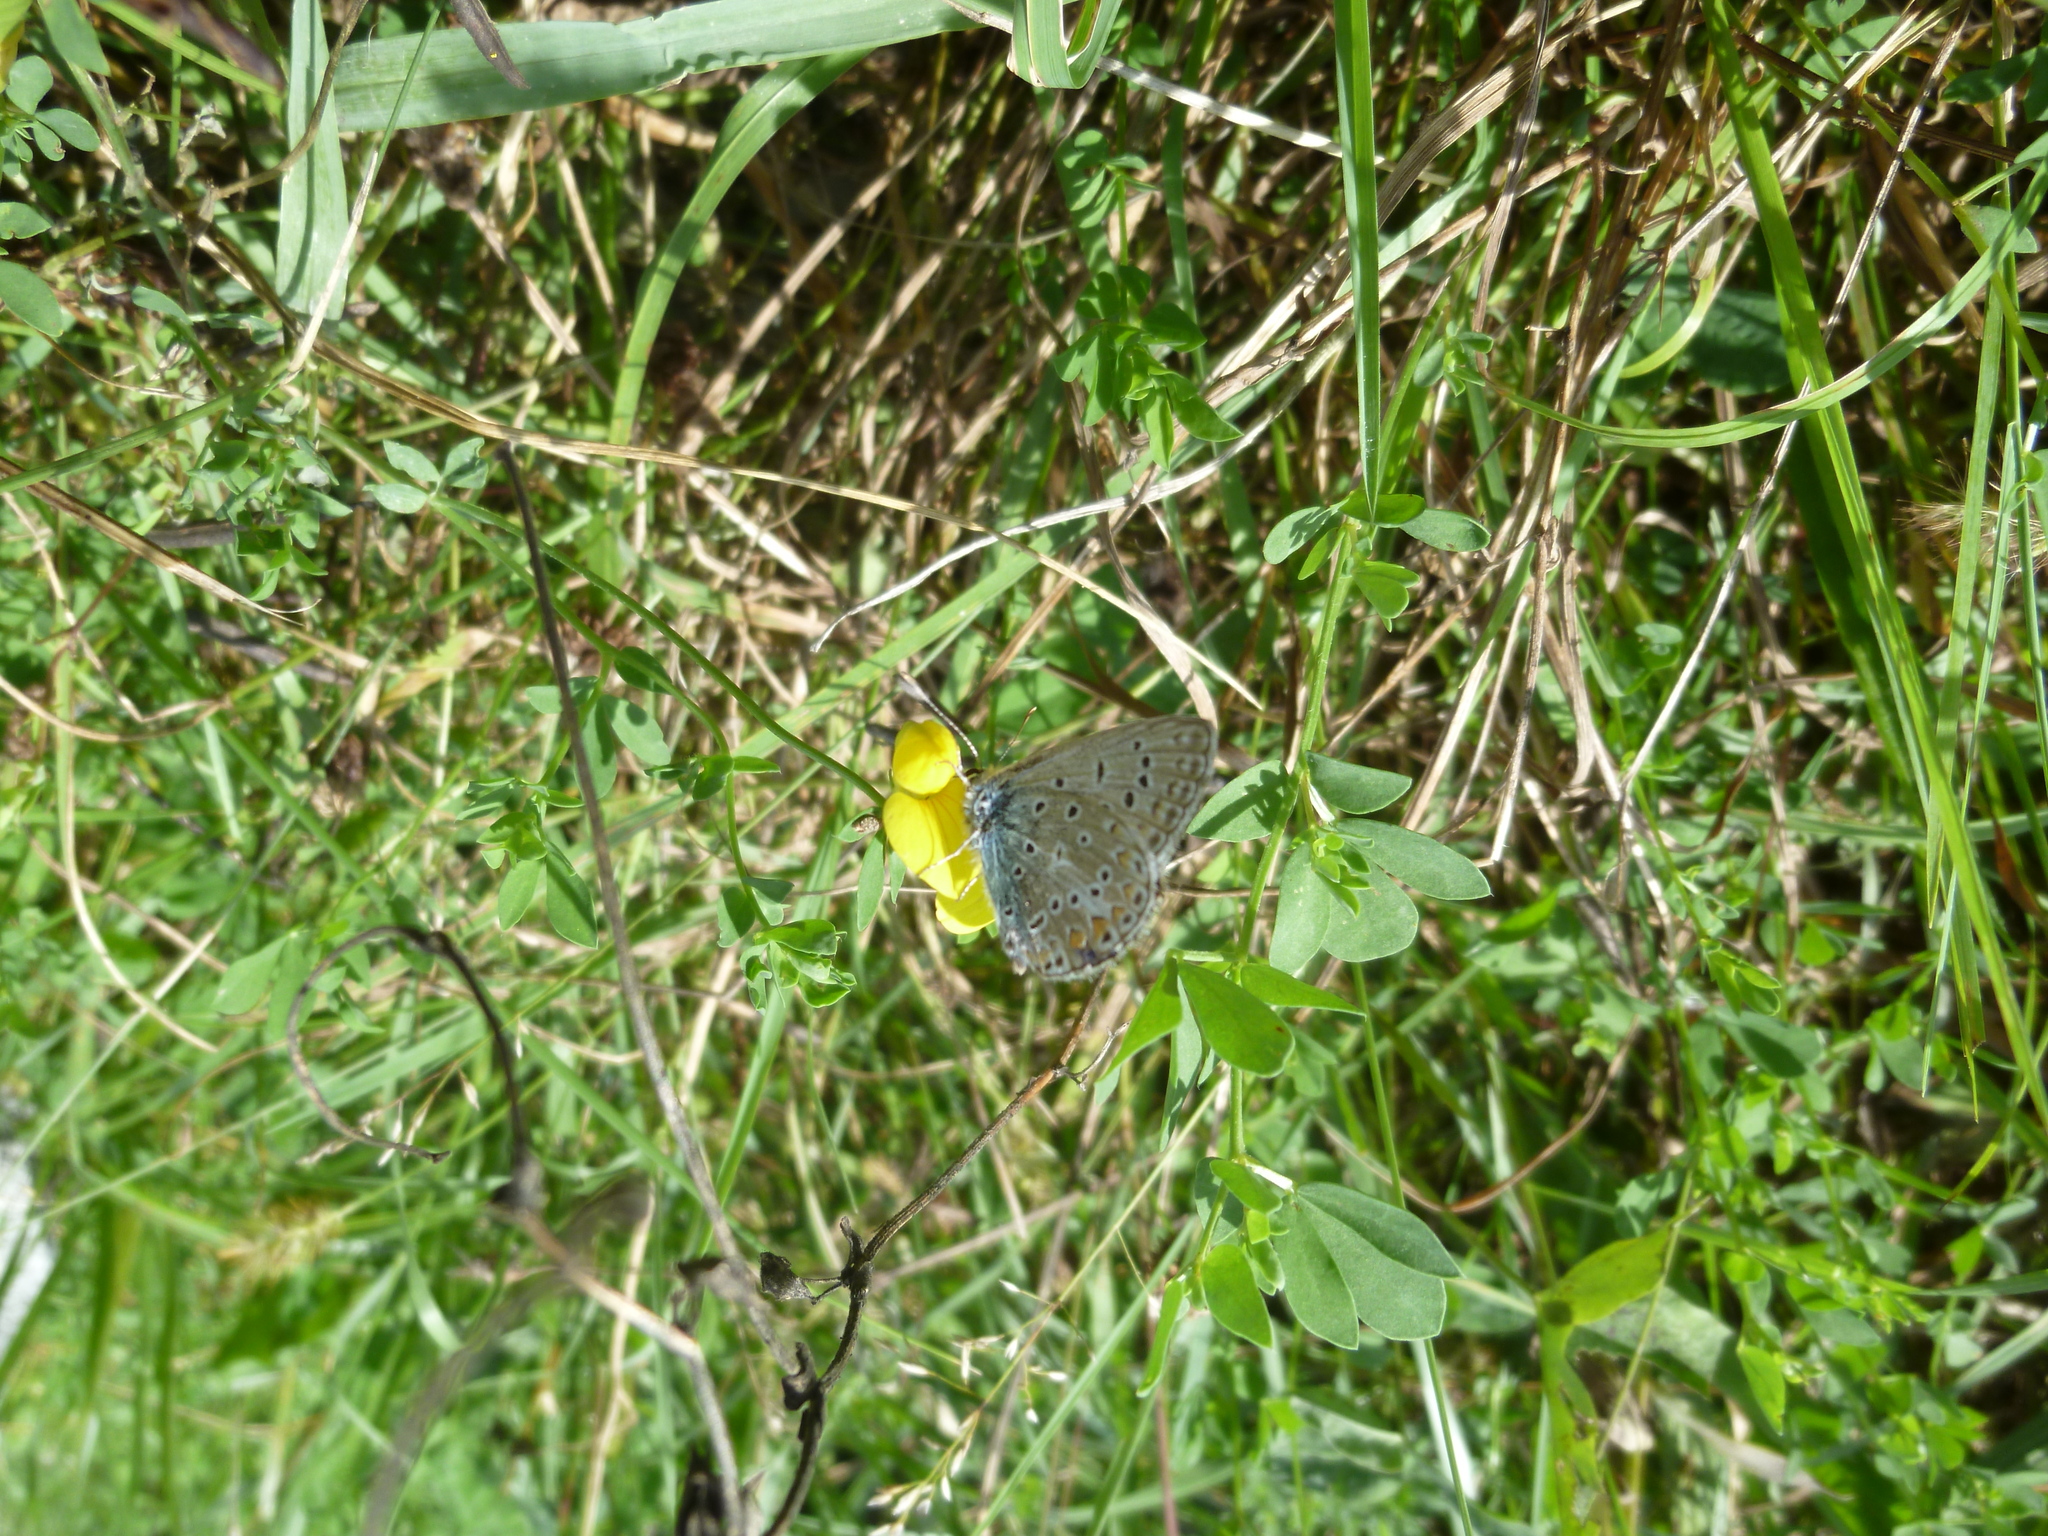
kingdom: Animalia
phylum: Arthropoda
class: Insecta
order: Lepidoptera
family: Lycaenidae
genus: Polyommatus
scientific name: Polyommatus icarus
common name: Common blue
